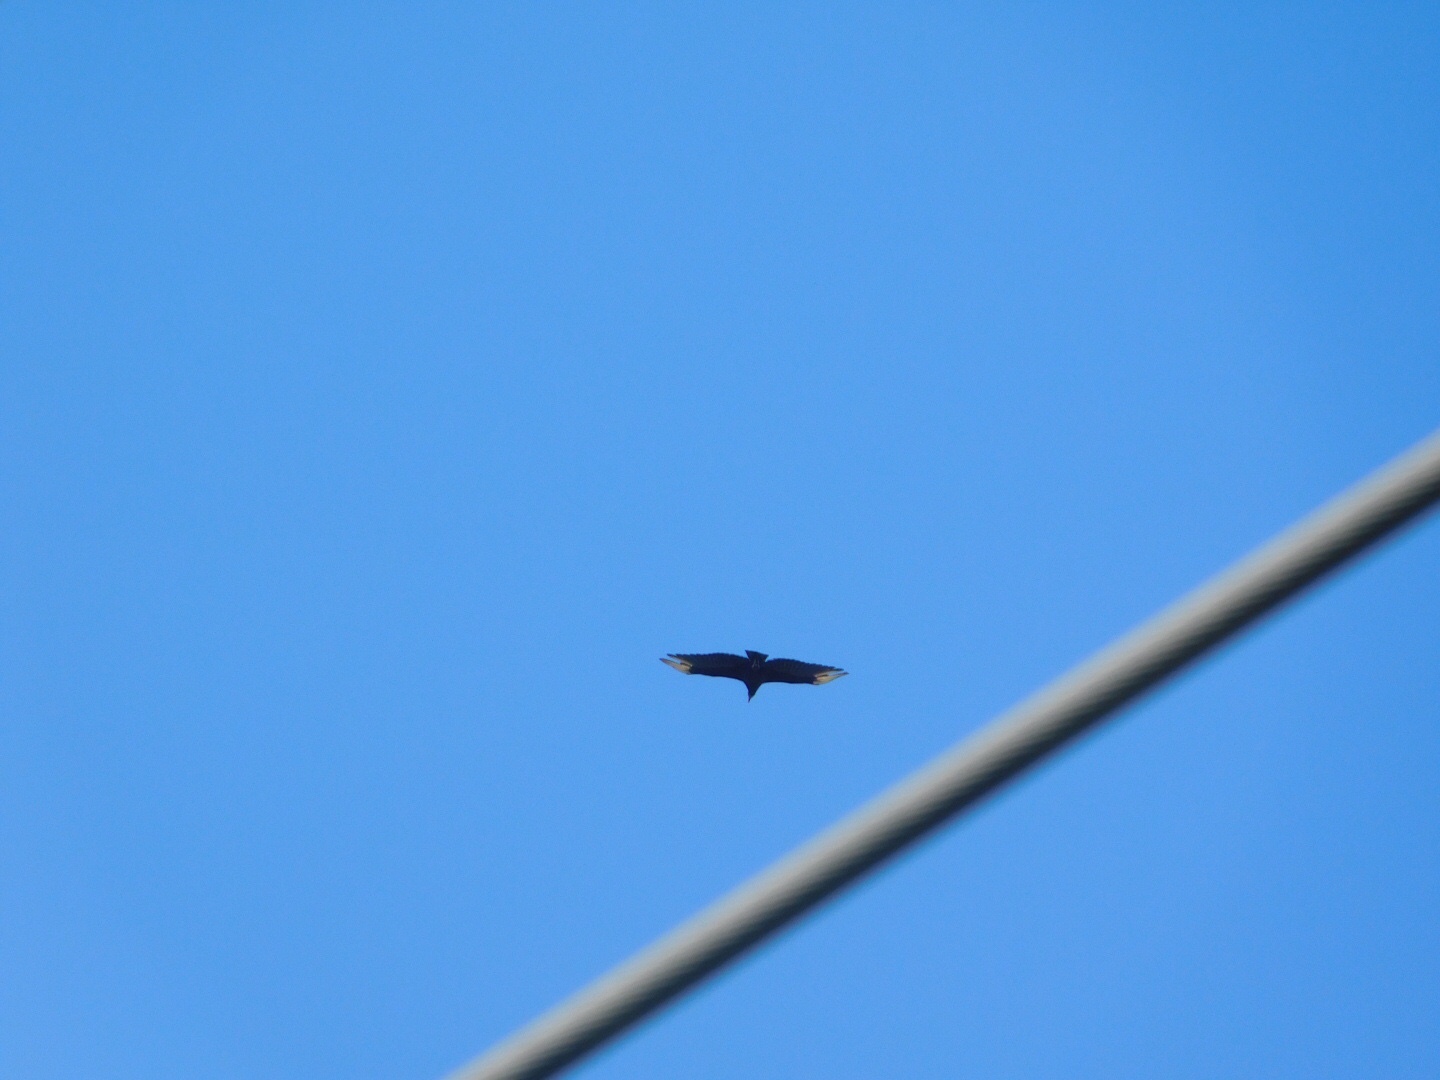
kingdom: Animalia
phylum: Chordata
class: Aves
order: Accipitriformes
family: Cathartidae
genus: Coragyps
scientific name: Coragyps atratus
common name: Black vulture
